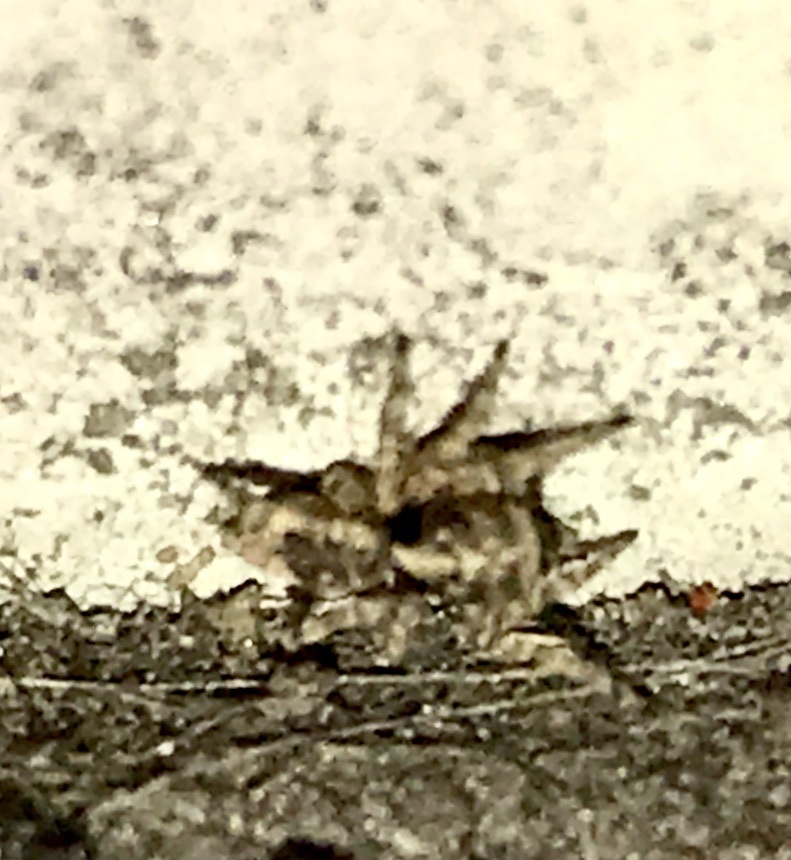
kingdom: Animalia
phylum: Arthropoda
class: Arachnida
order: Araneae
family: Salticidae
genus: Attulus
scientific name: Attulus fasciger
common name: Asiatic wall jumping spider
